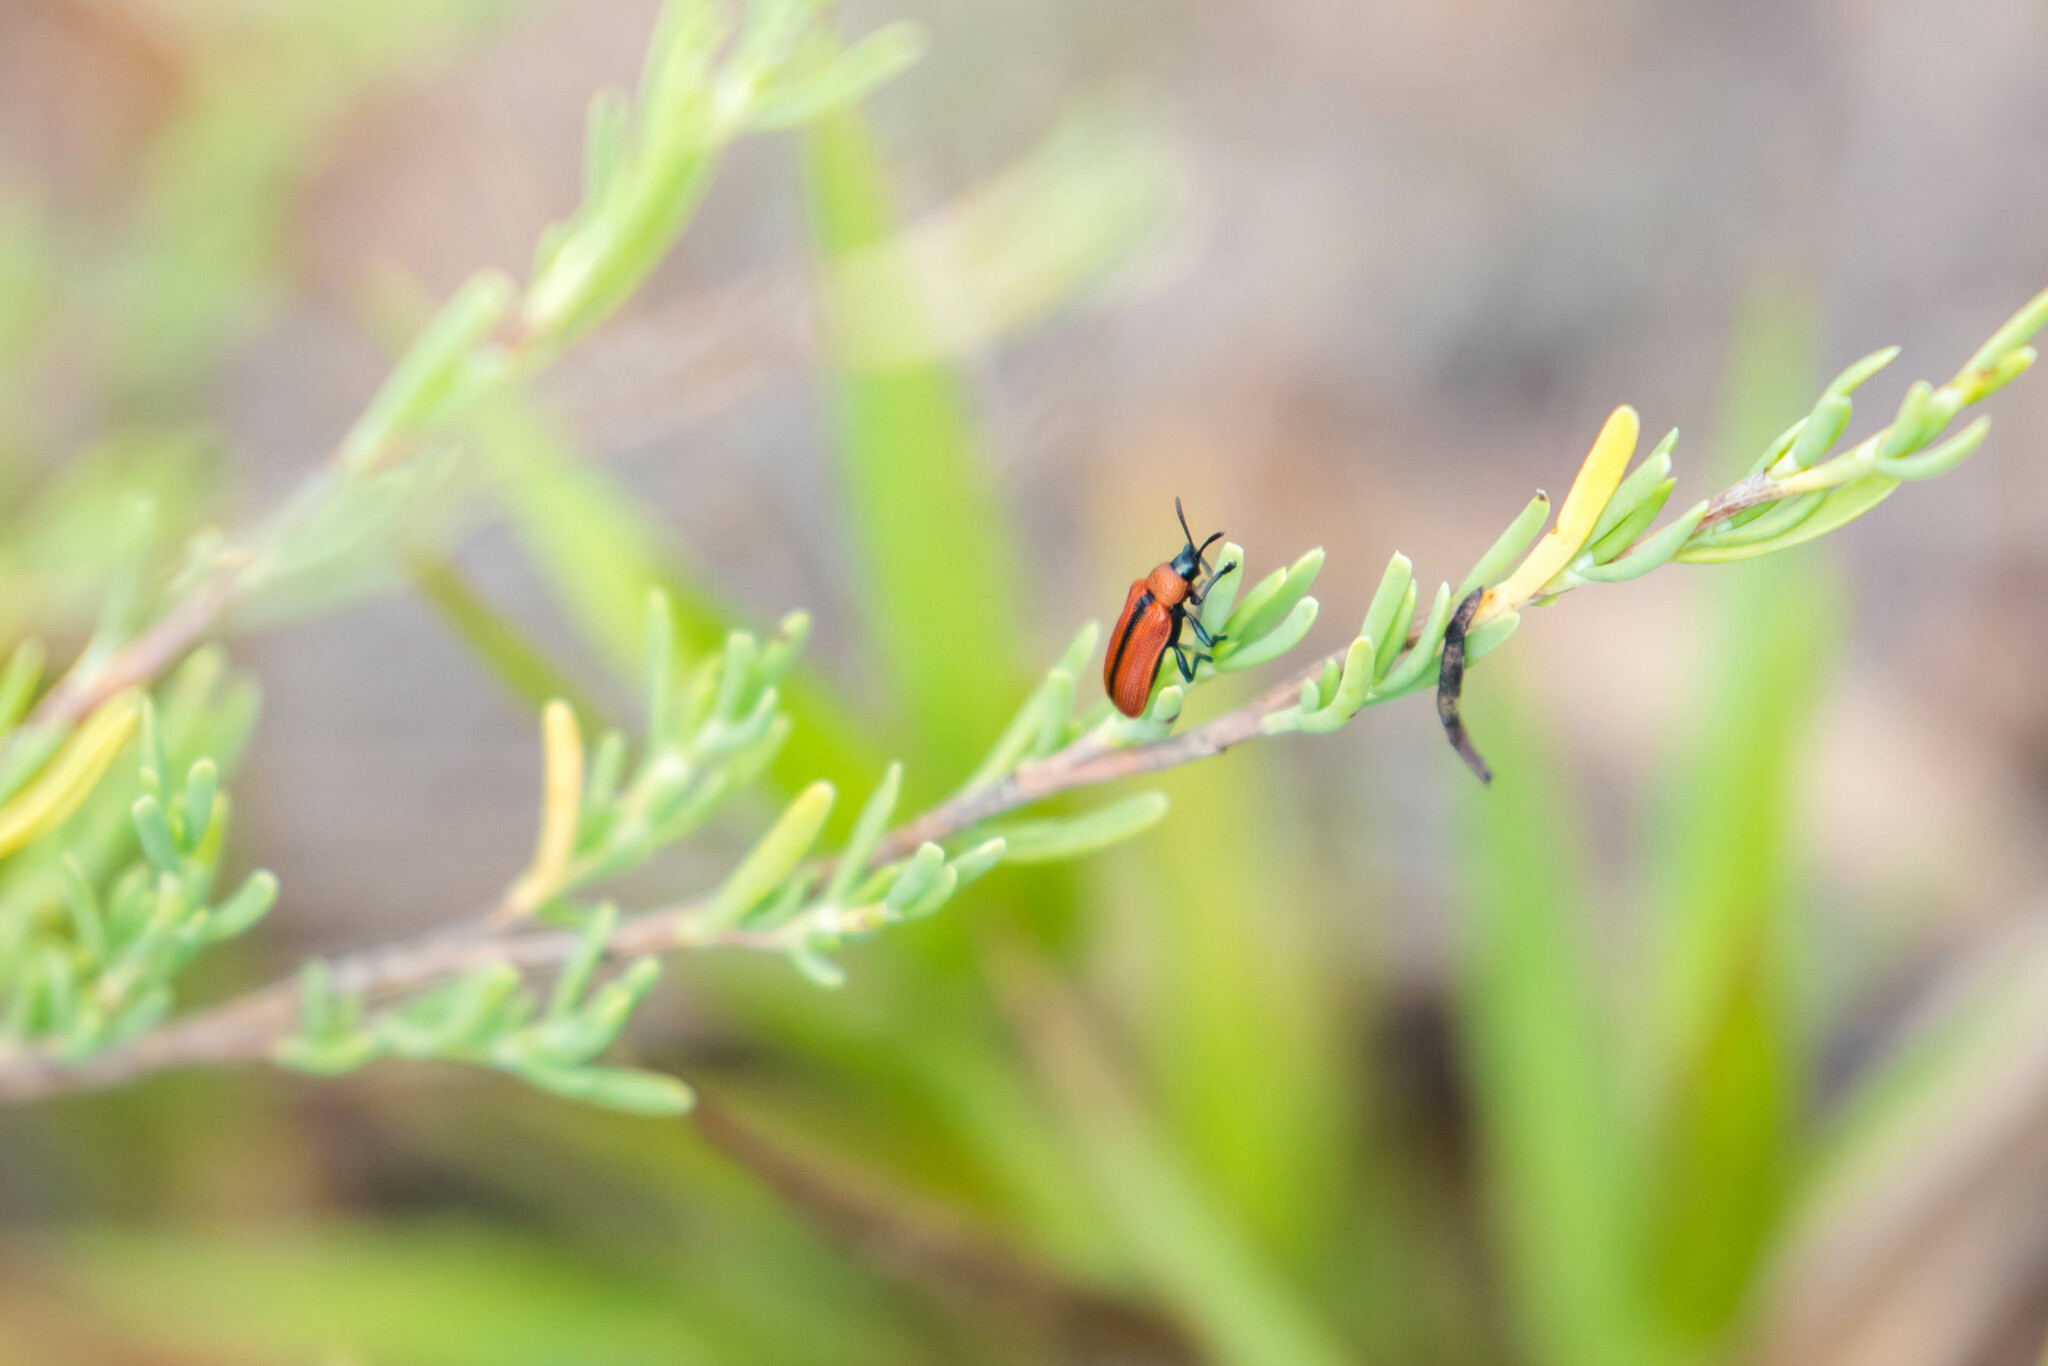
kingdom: Animalia
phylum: Arthropoda
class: Insecta
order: Coleoptera
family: Chrysomelidae
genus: Odontota
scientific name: Odontota horni
